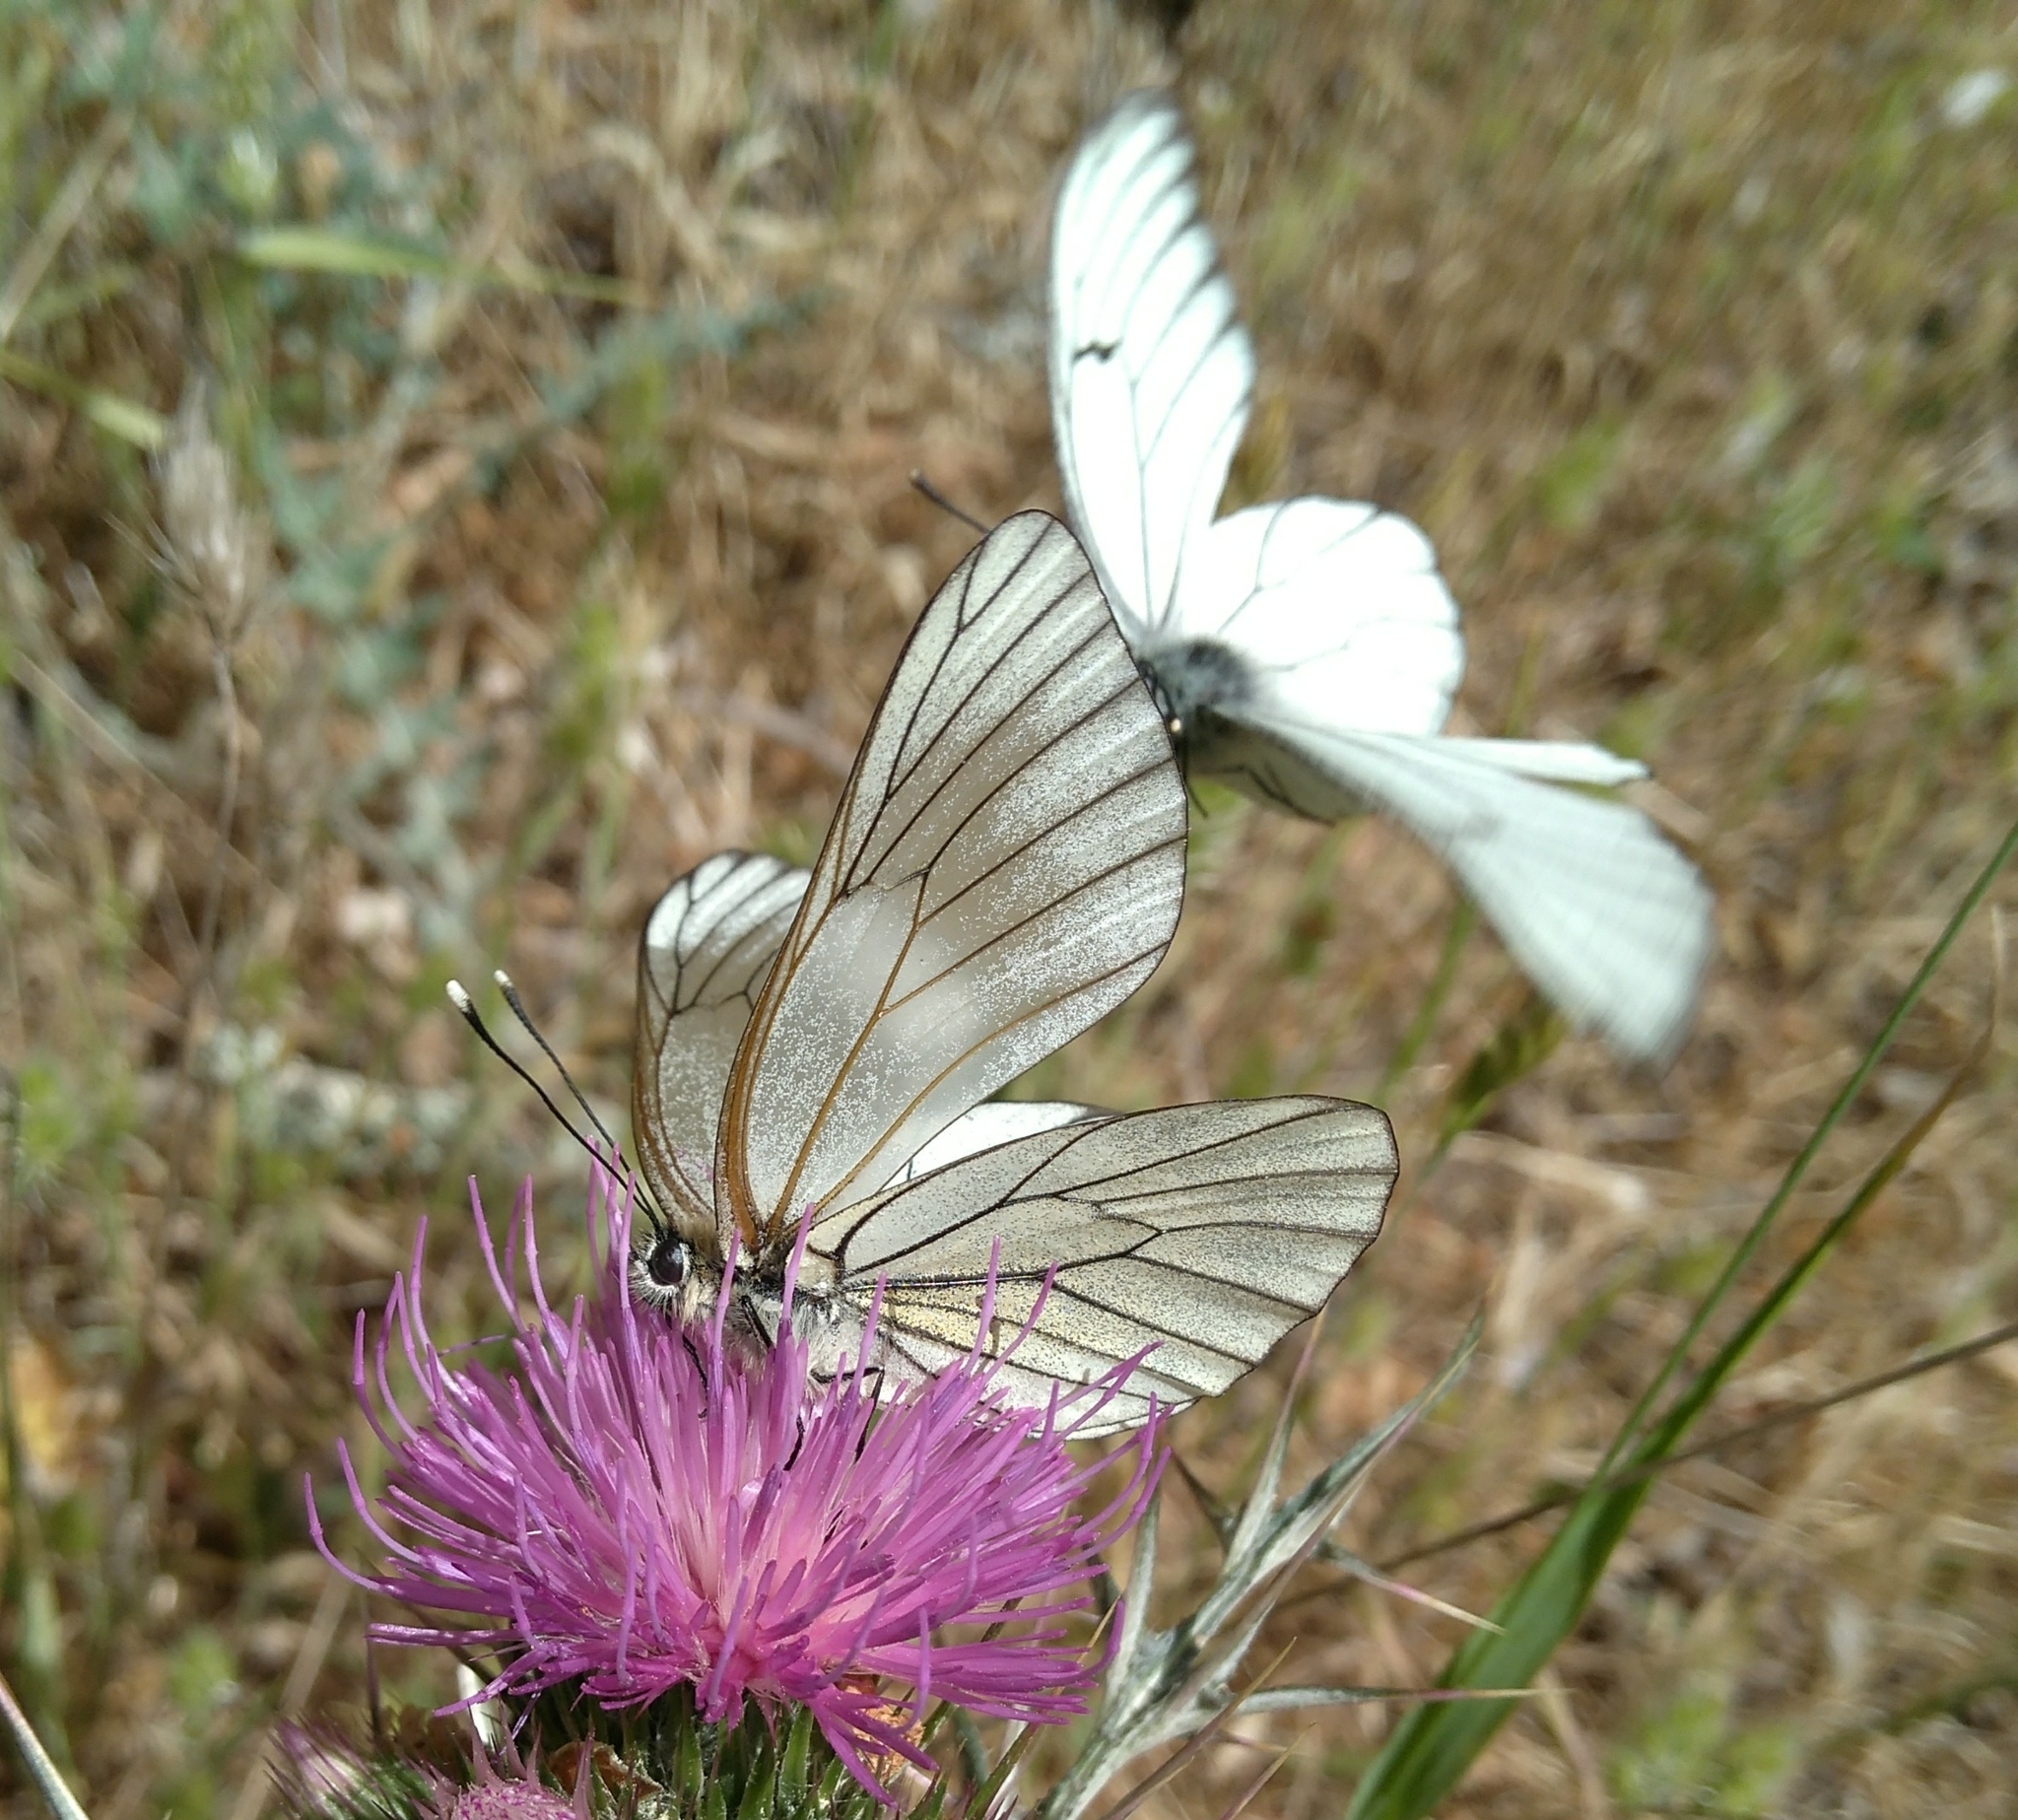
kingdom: Animalia
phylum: Arthropoda
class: Insecta
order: Lepidoptera
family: Pieridae
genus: Aporia
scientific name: Aporia crataegi
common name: Black-veined white
